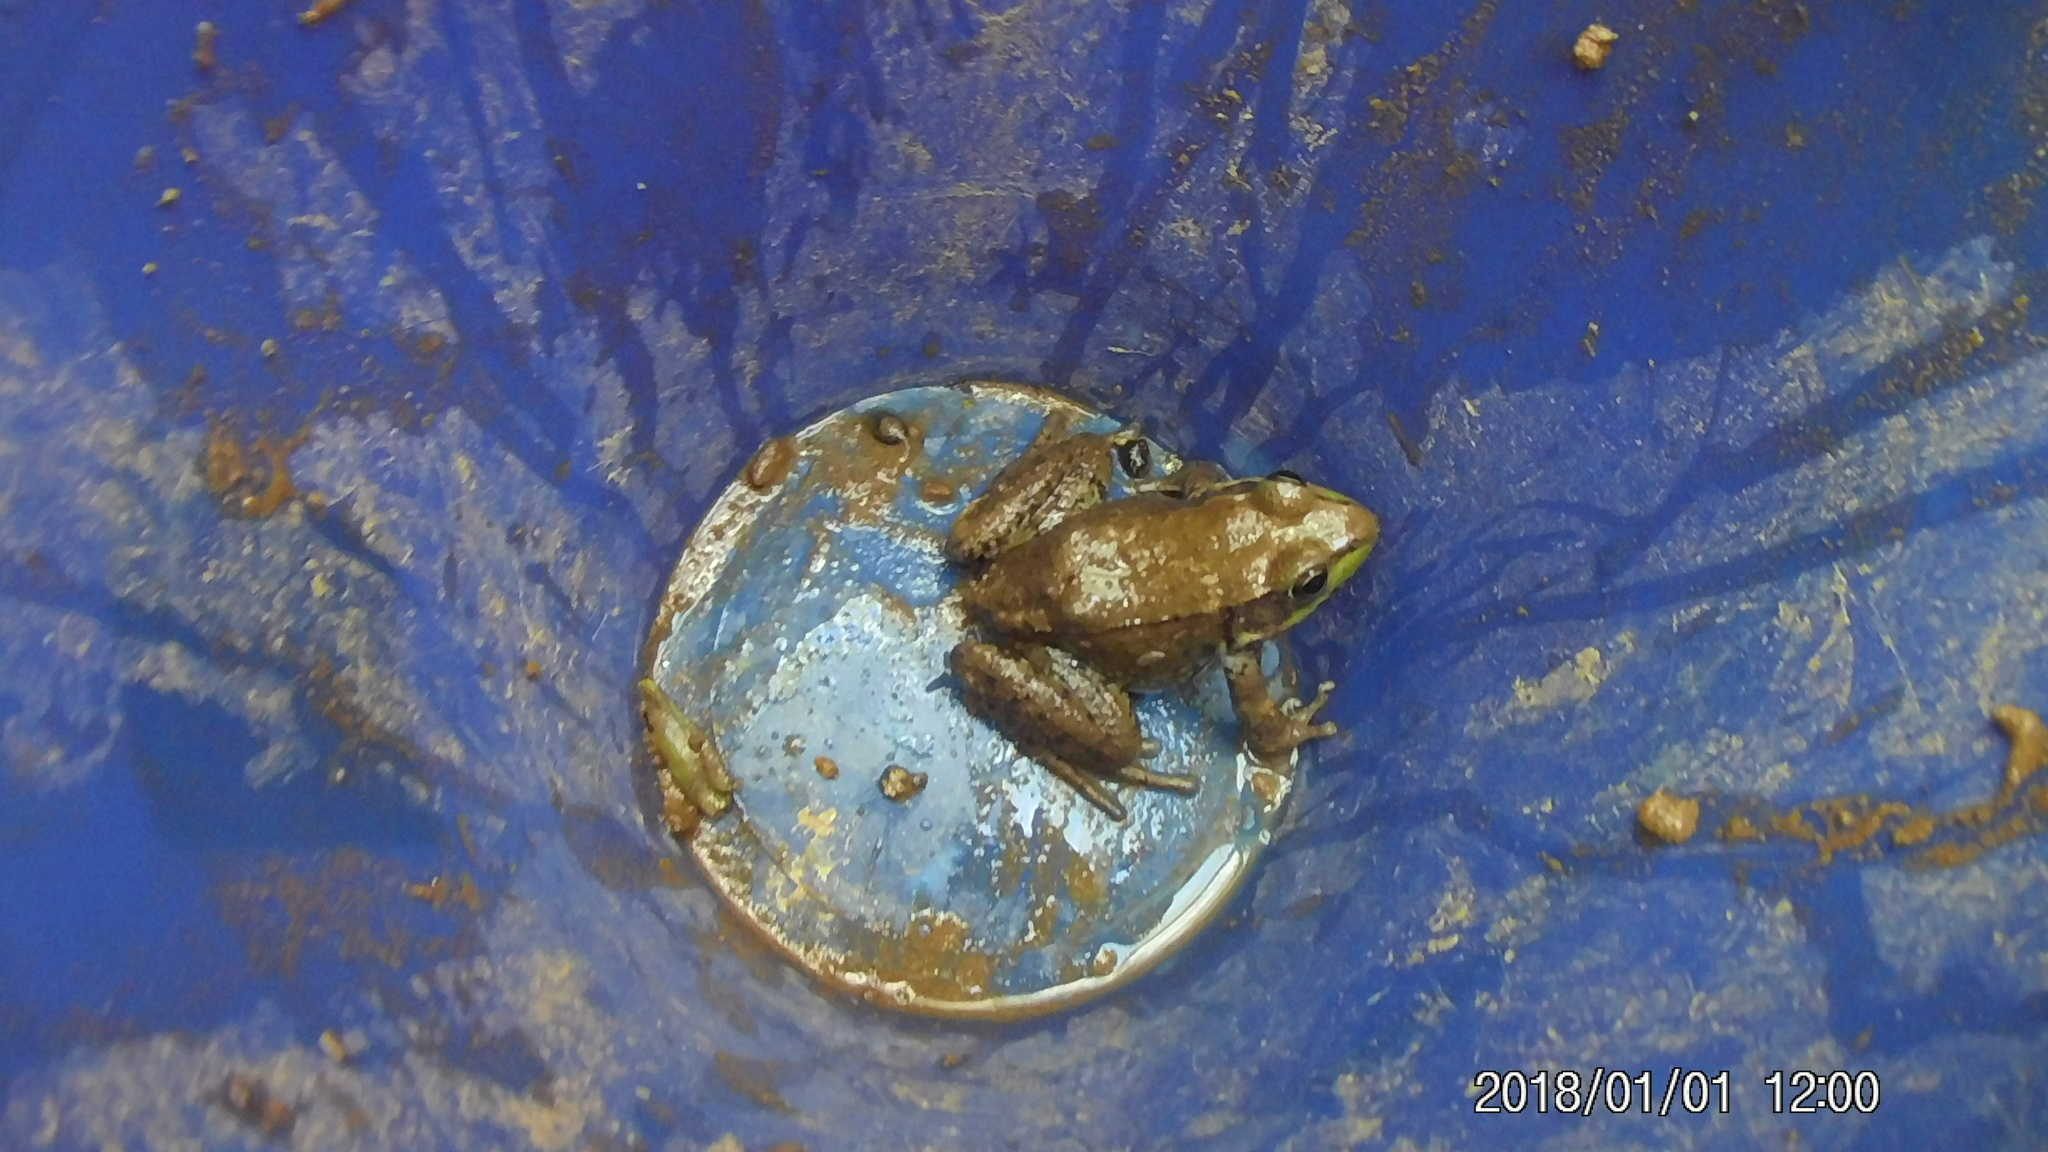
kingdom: Animalia
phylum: Chordata
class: Amphibia
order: Anura
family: Ranidae
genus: Lithobates
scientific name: Lithobates clamitans
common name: Green frog
